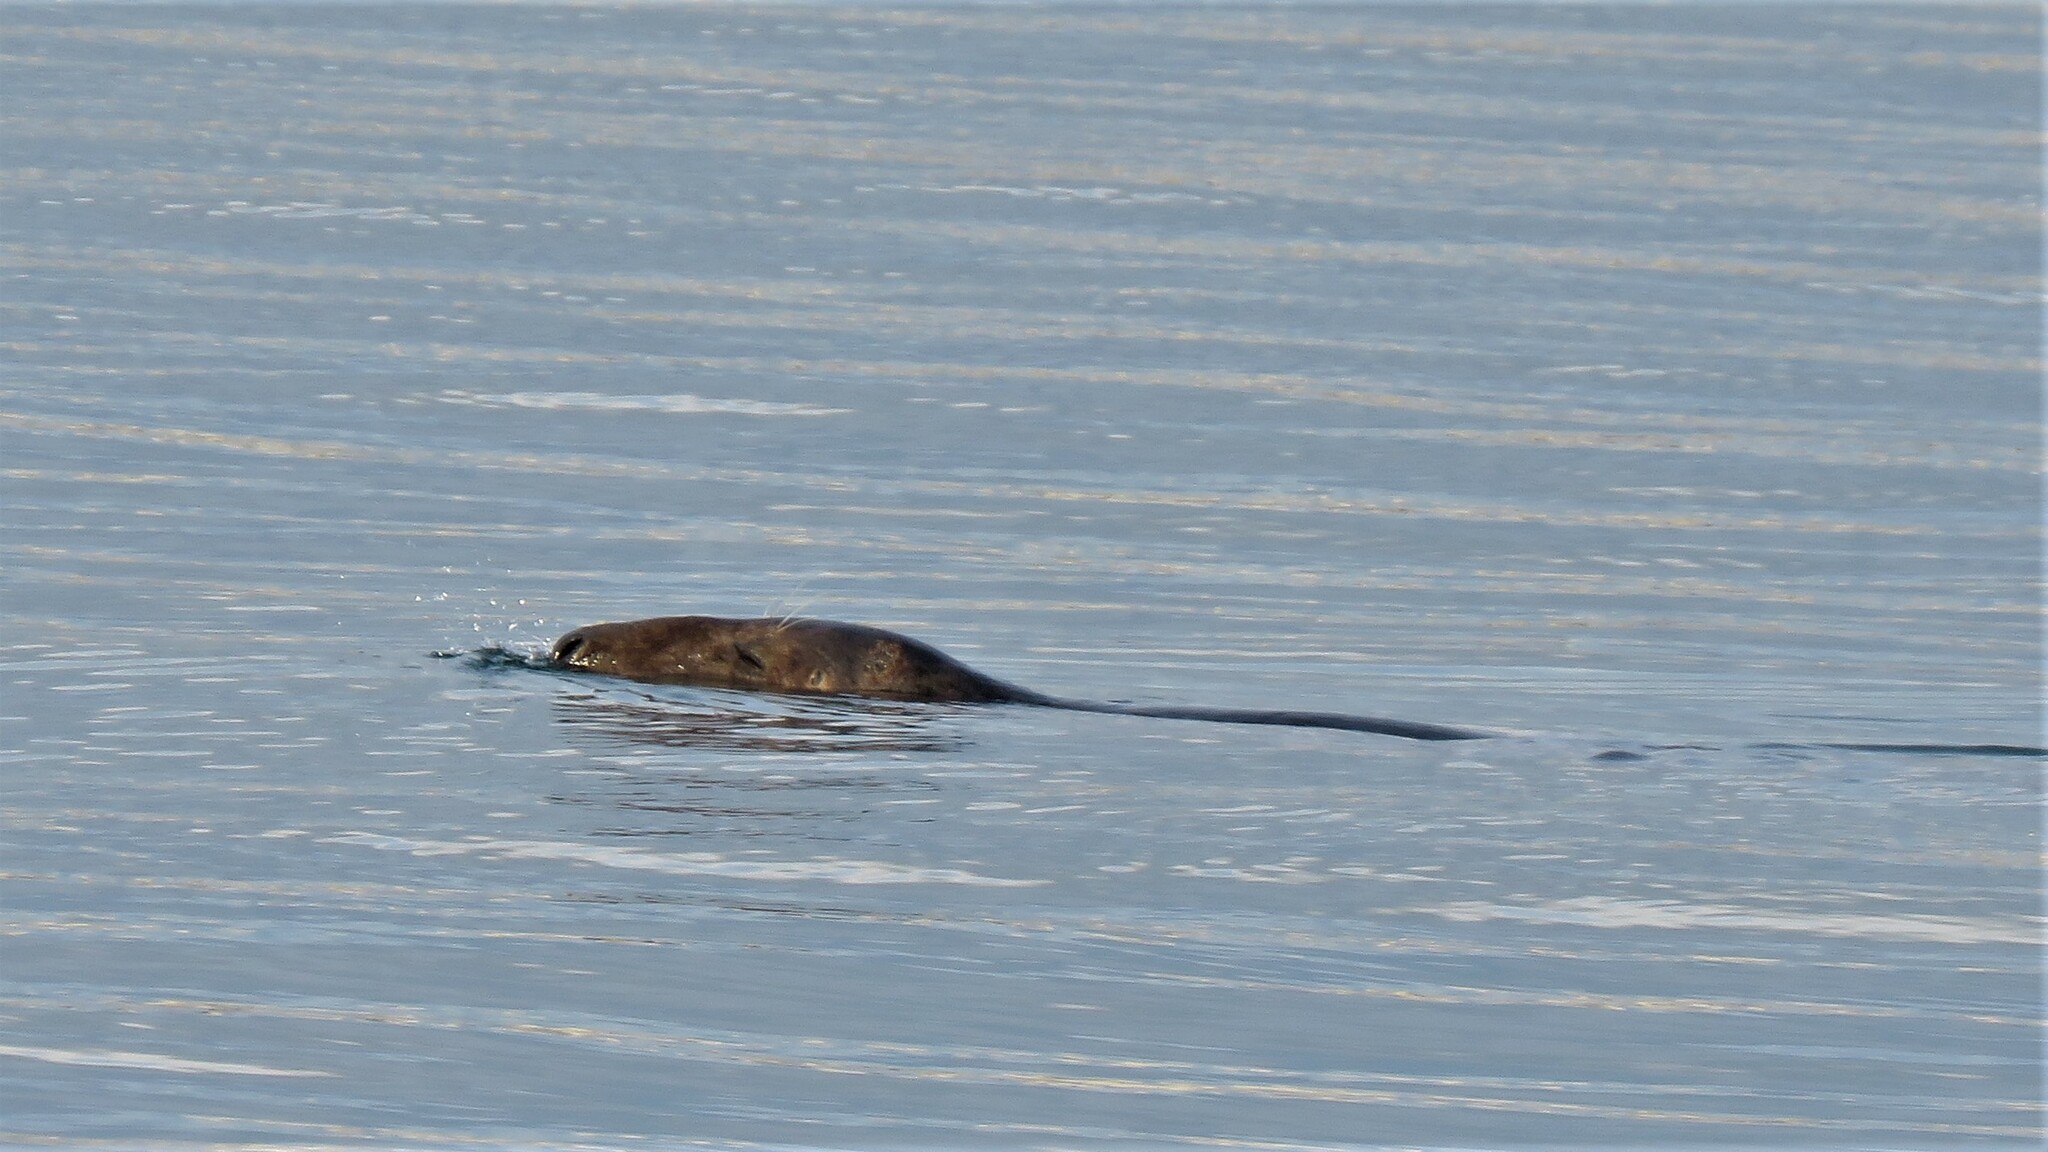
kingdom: Animalia
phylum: Chordata
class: Mammalia
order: Carnivora
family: Phocidae
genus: Halichoerus
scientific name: Halichoerus grypus
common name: Grey seal
